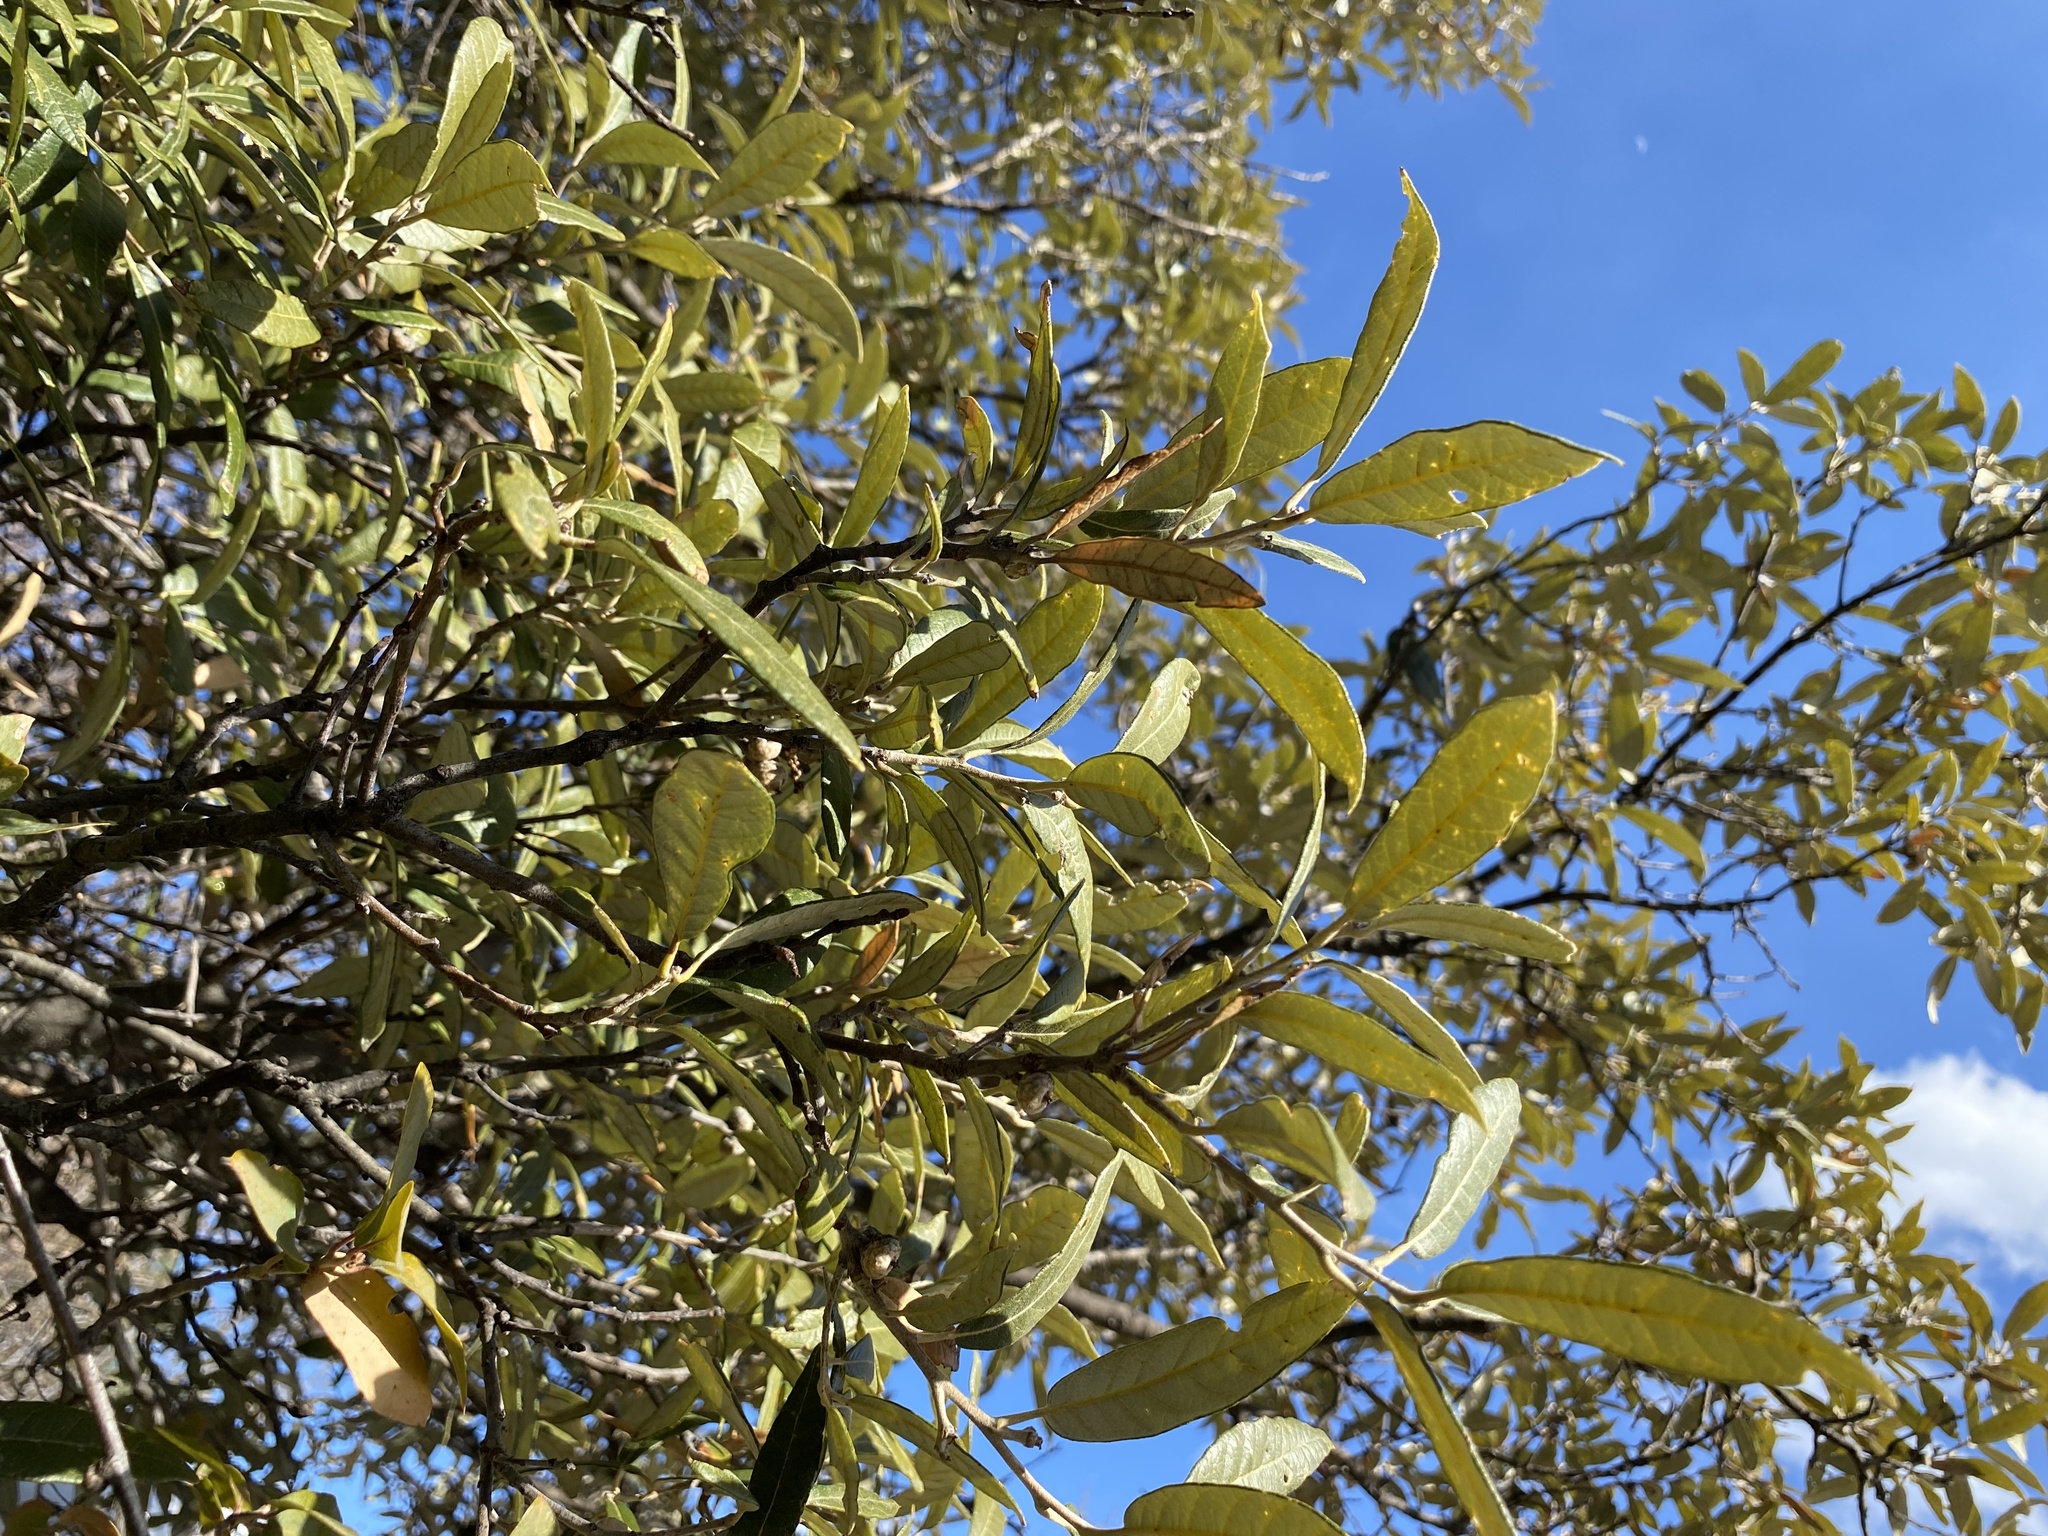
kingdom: Plantae
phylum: Tracheophyta
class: Magnoliopsida
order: Fagales
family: Fagaceae
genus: Quercus
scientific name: Quercus hypoleucoides
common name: Silverleaf oak
